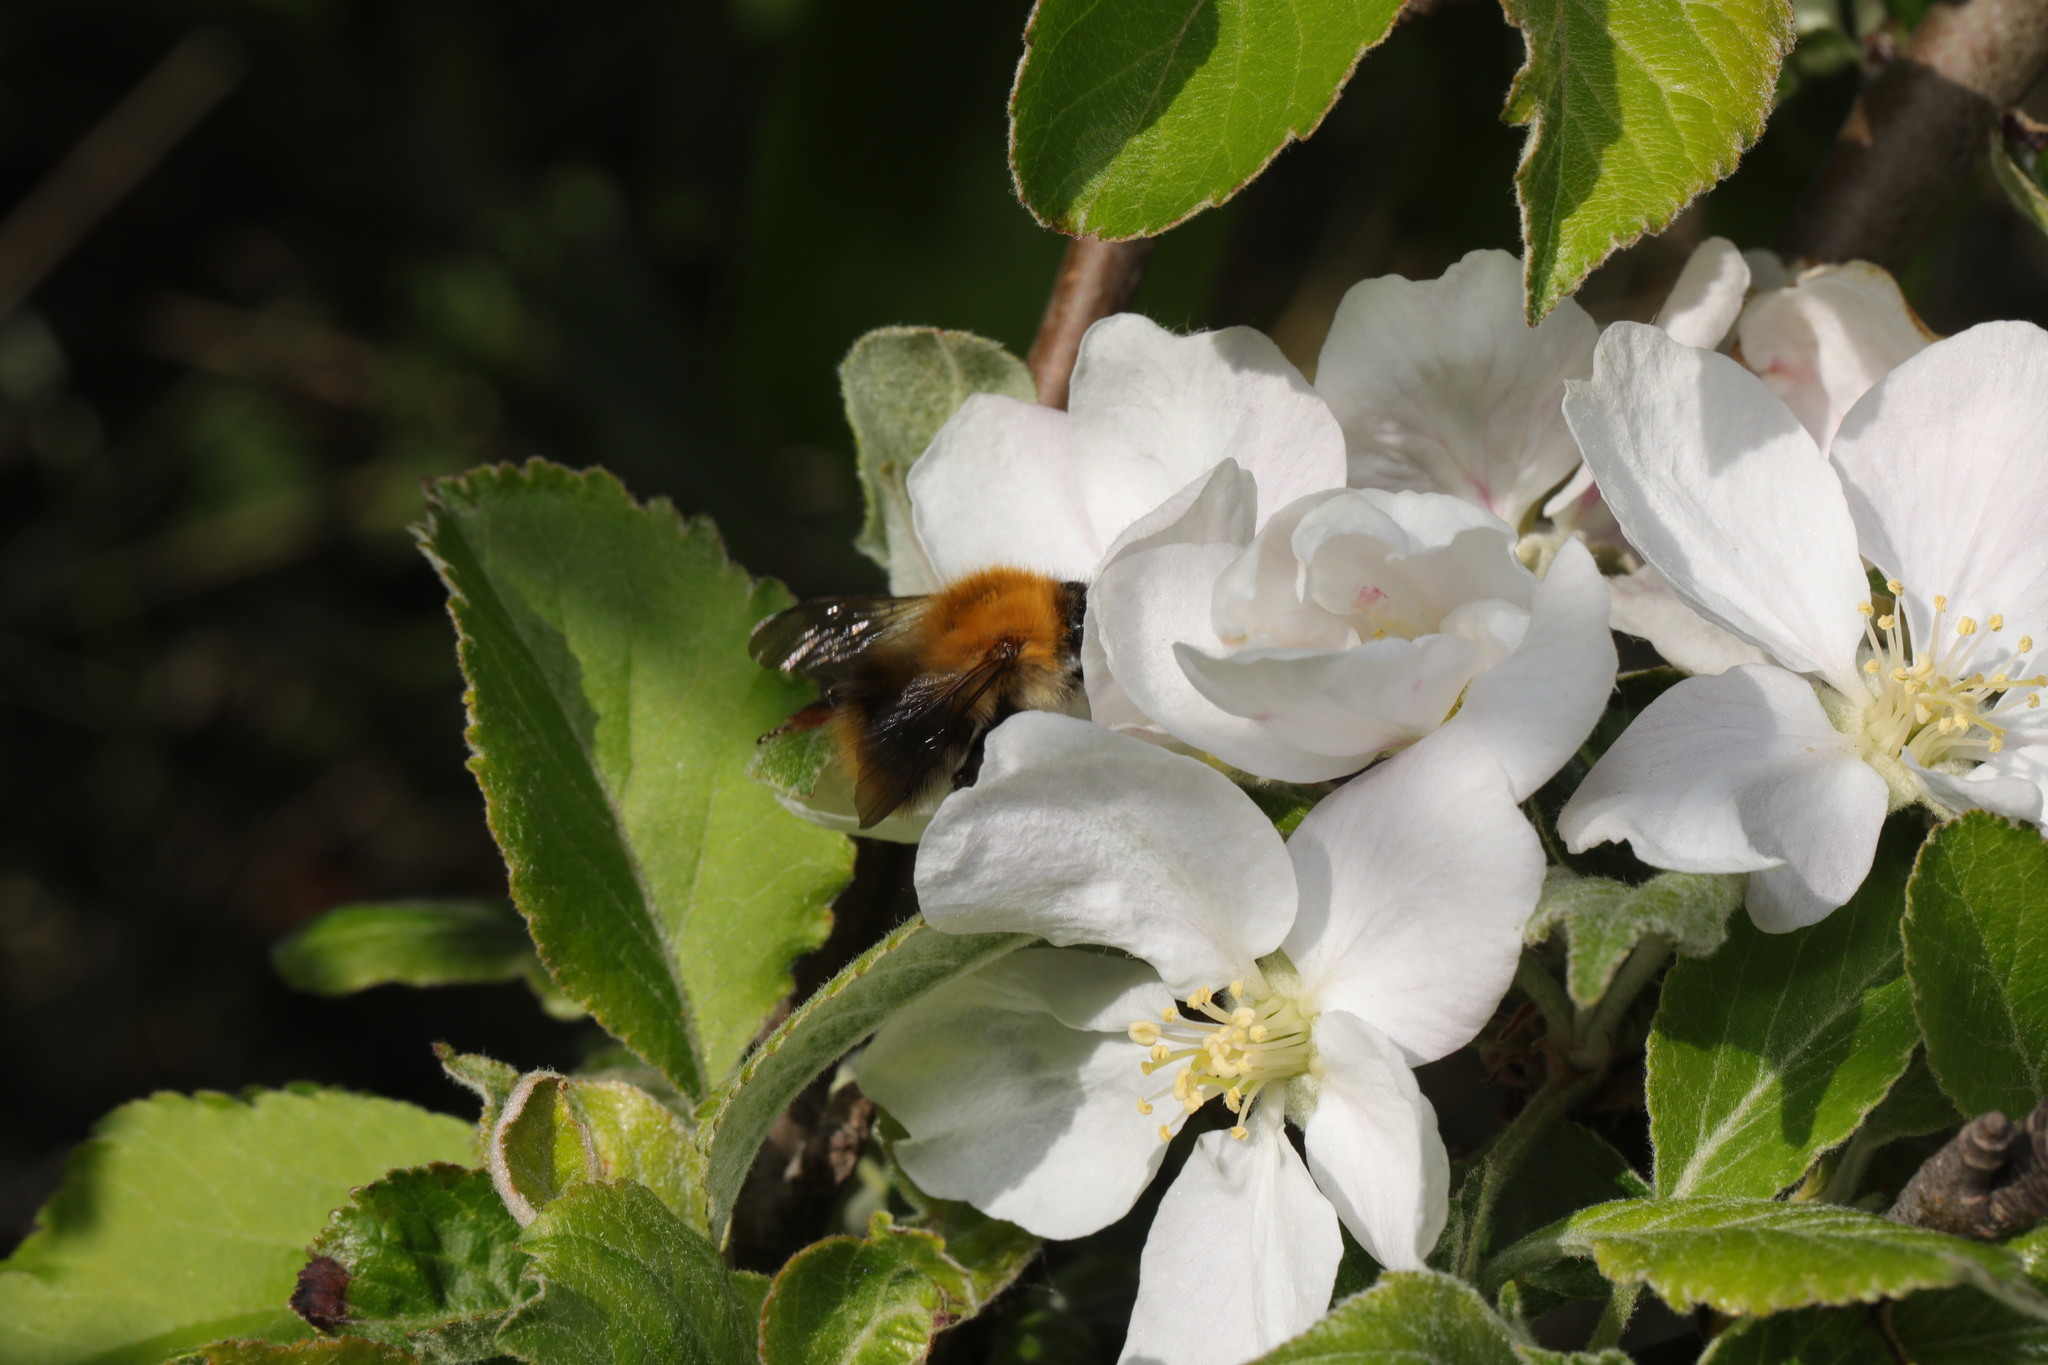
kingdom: Animalia
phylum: Arthropoda
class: Insecta
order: Hymenoptera
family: Apidae
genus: Bombus
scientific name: Bombus pascuorum
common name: Common carder bee
